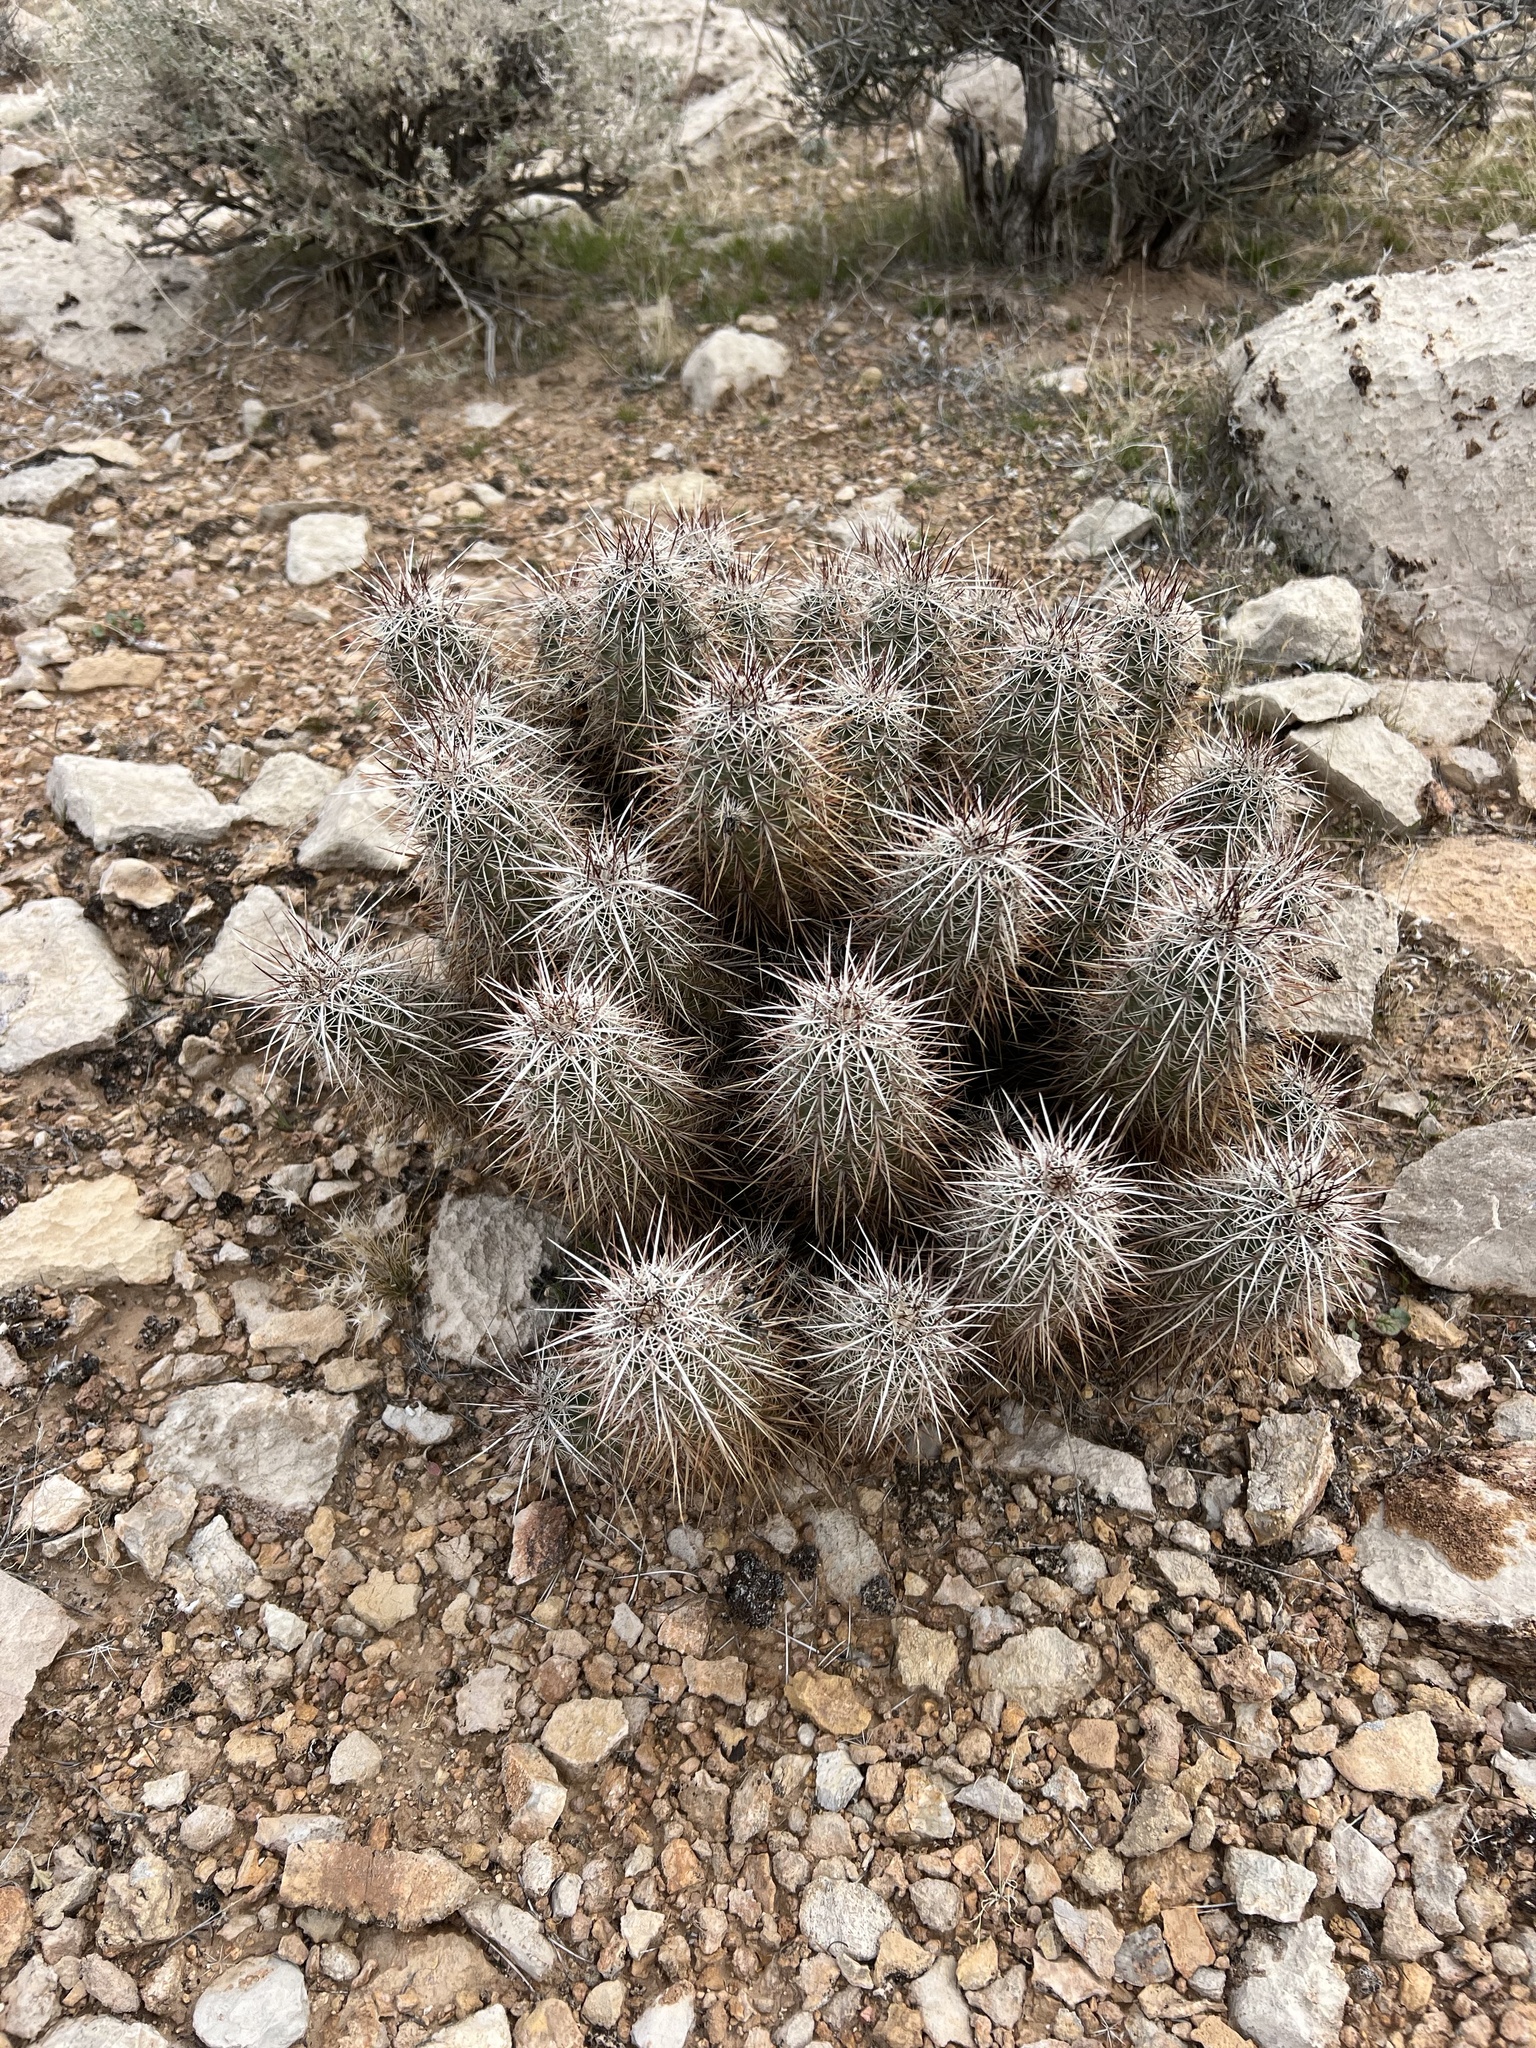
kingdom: Plantae
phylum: Tracheophyta
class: Magnoliopsida
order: Caryophyllales
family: Cactaceae
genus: Echinocereus
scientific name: Echinocereus engelmannii
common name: Engelmann's hedgehog cactus
